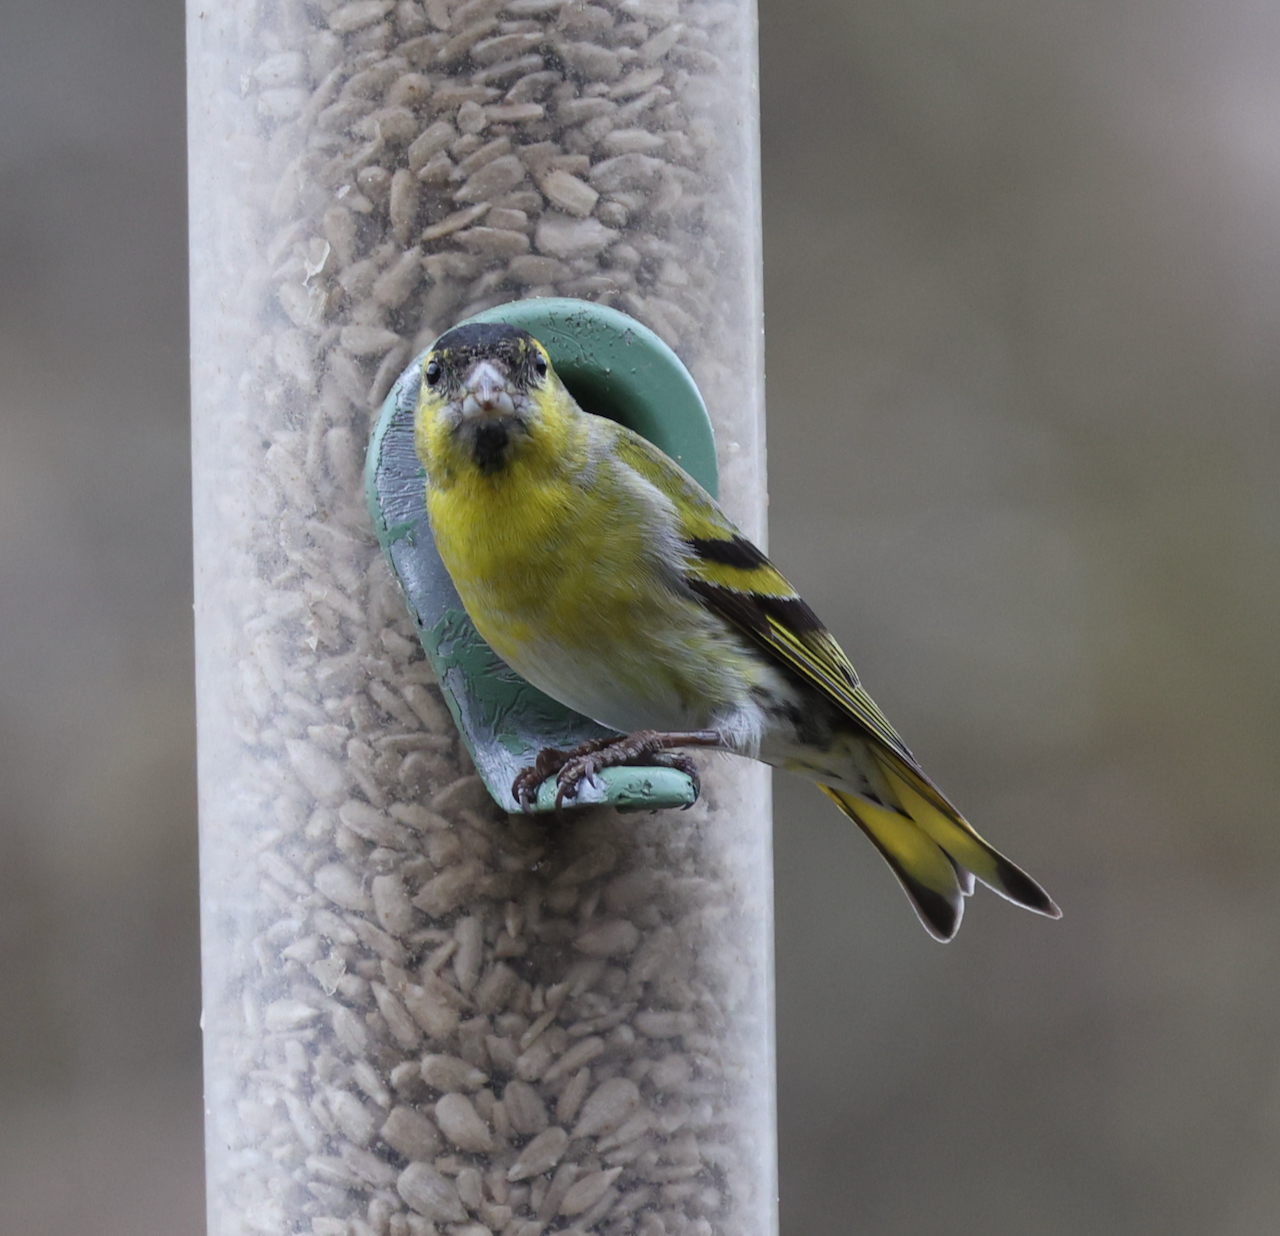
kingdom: Animalia
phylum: Chordata
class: Aves
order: Passeriformes
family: Fringillidae
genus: Spinus
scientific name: Spinus spinus
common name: Eurasian siskin
